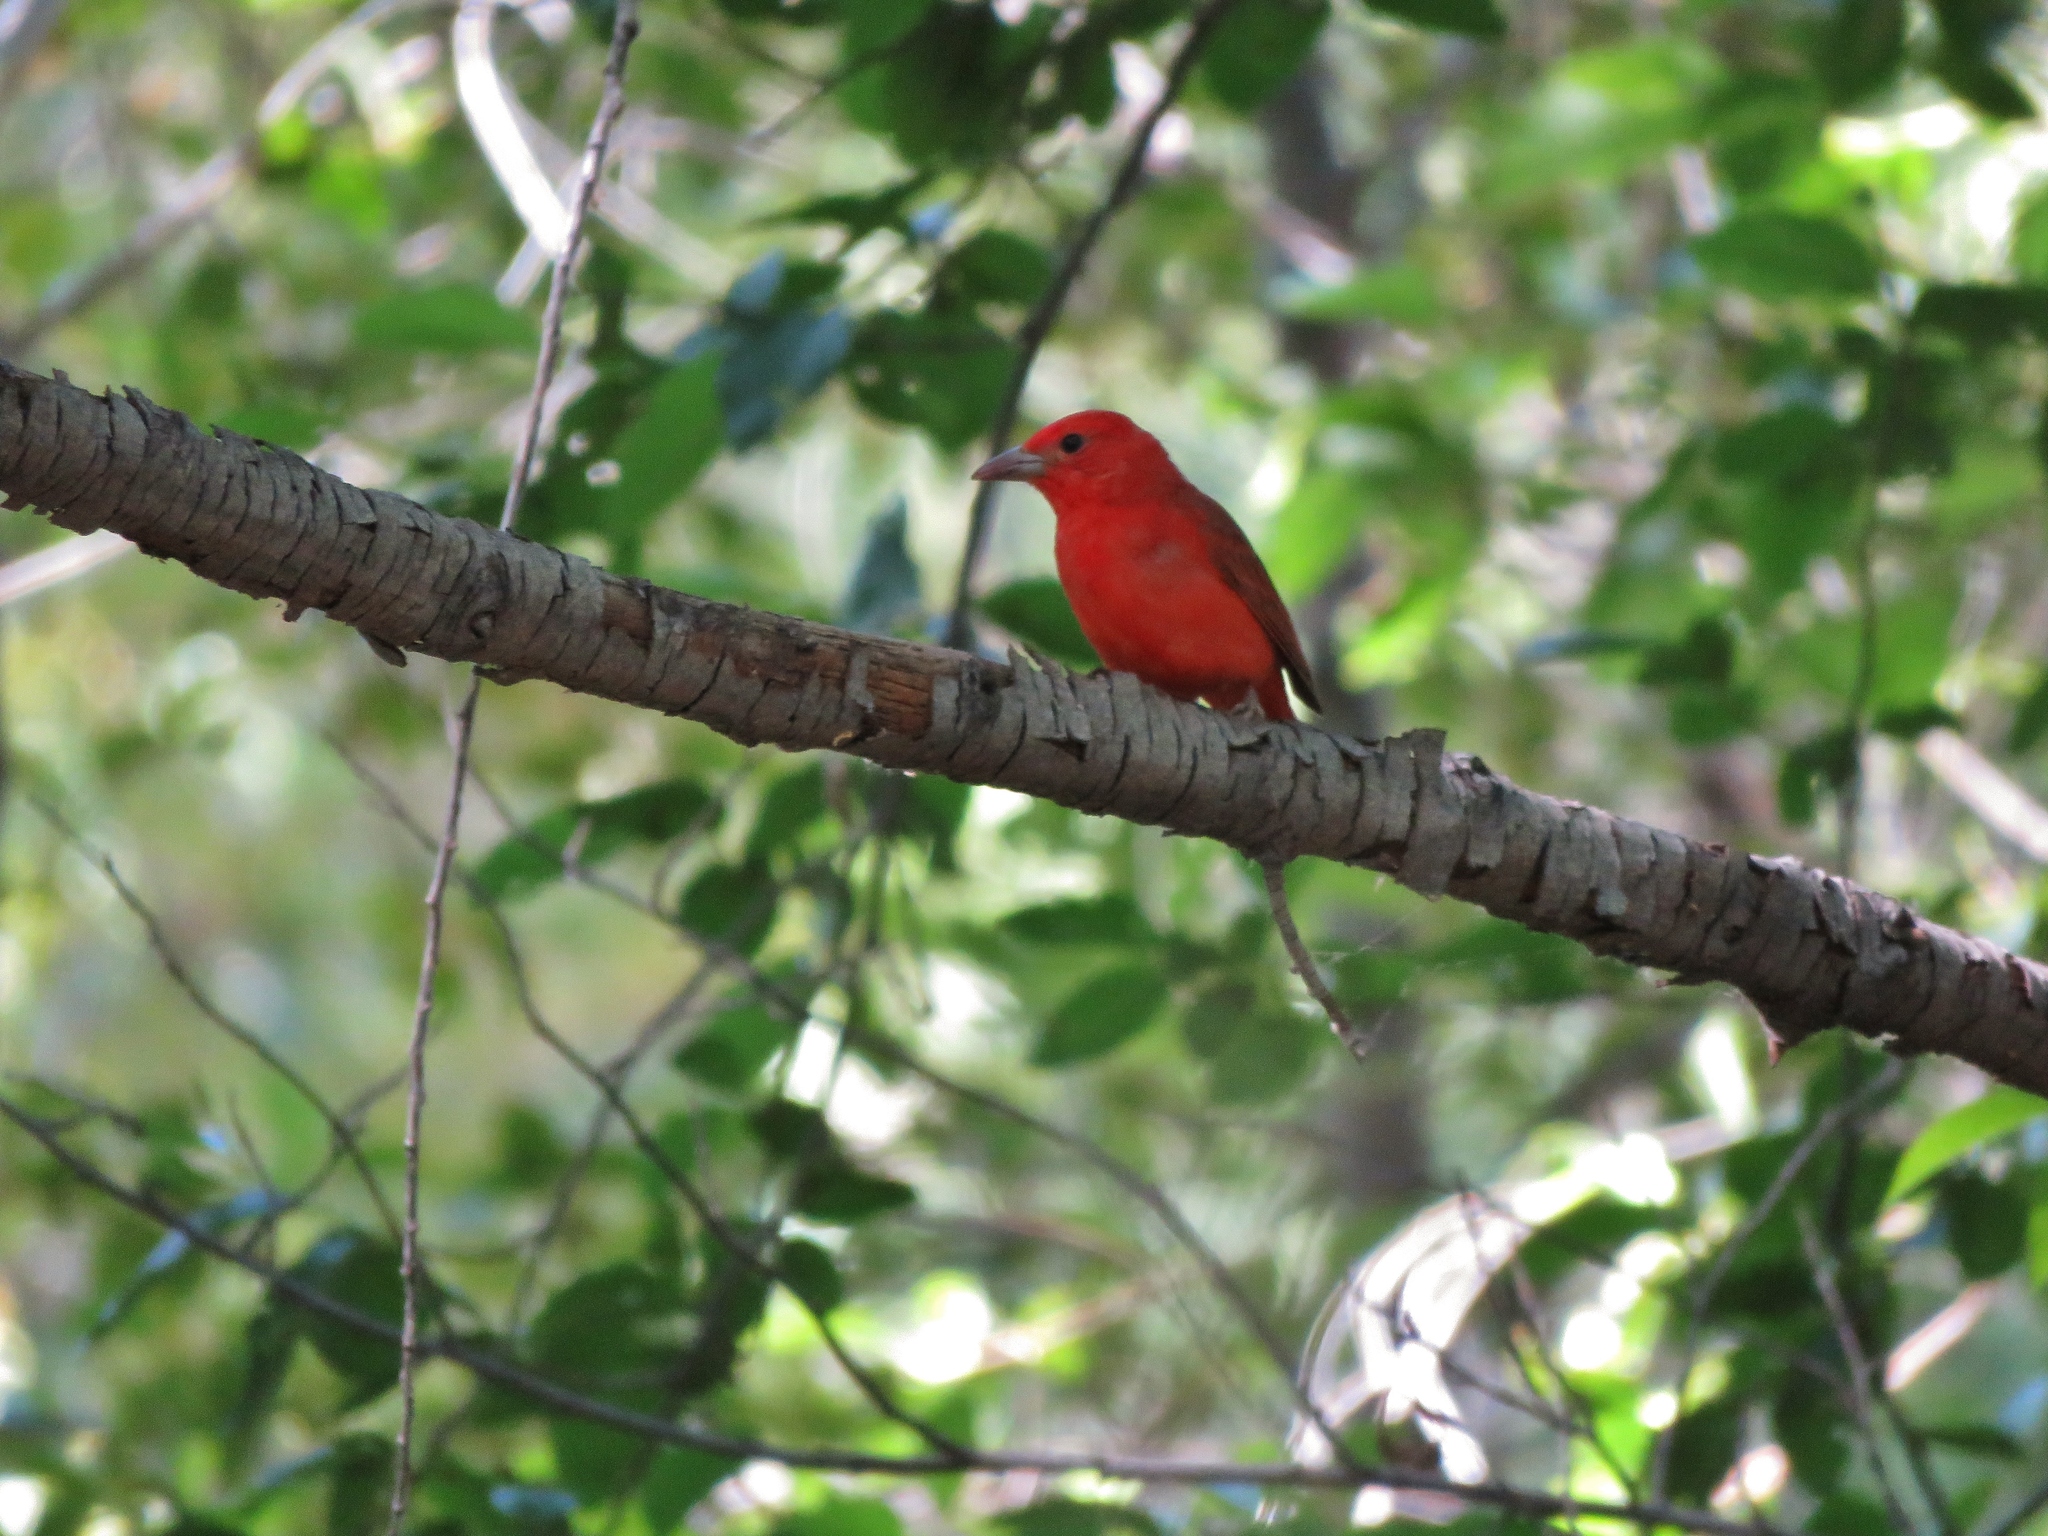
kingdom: Animalia
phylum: Chordata
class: Aves
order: Passeriformes
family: Cardinalidae
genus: Piranga
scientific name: Piranga rubra
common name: Summer tanager
